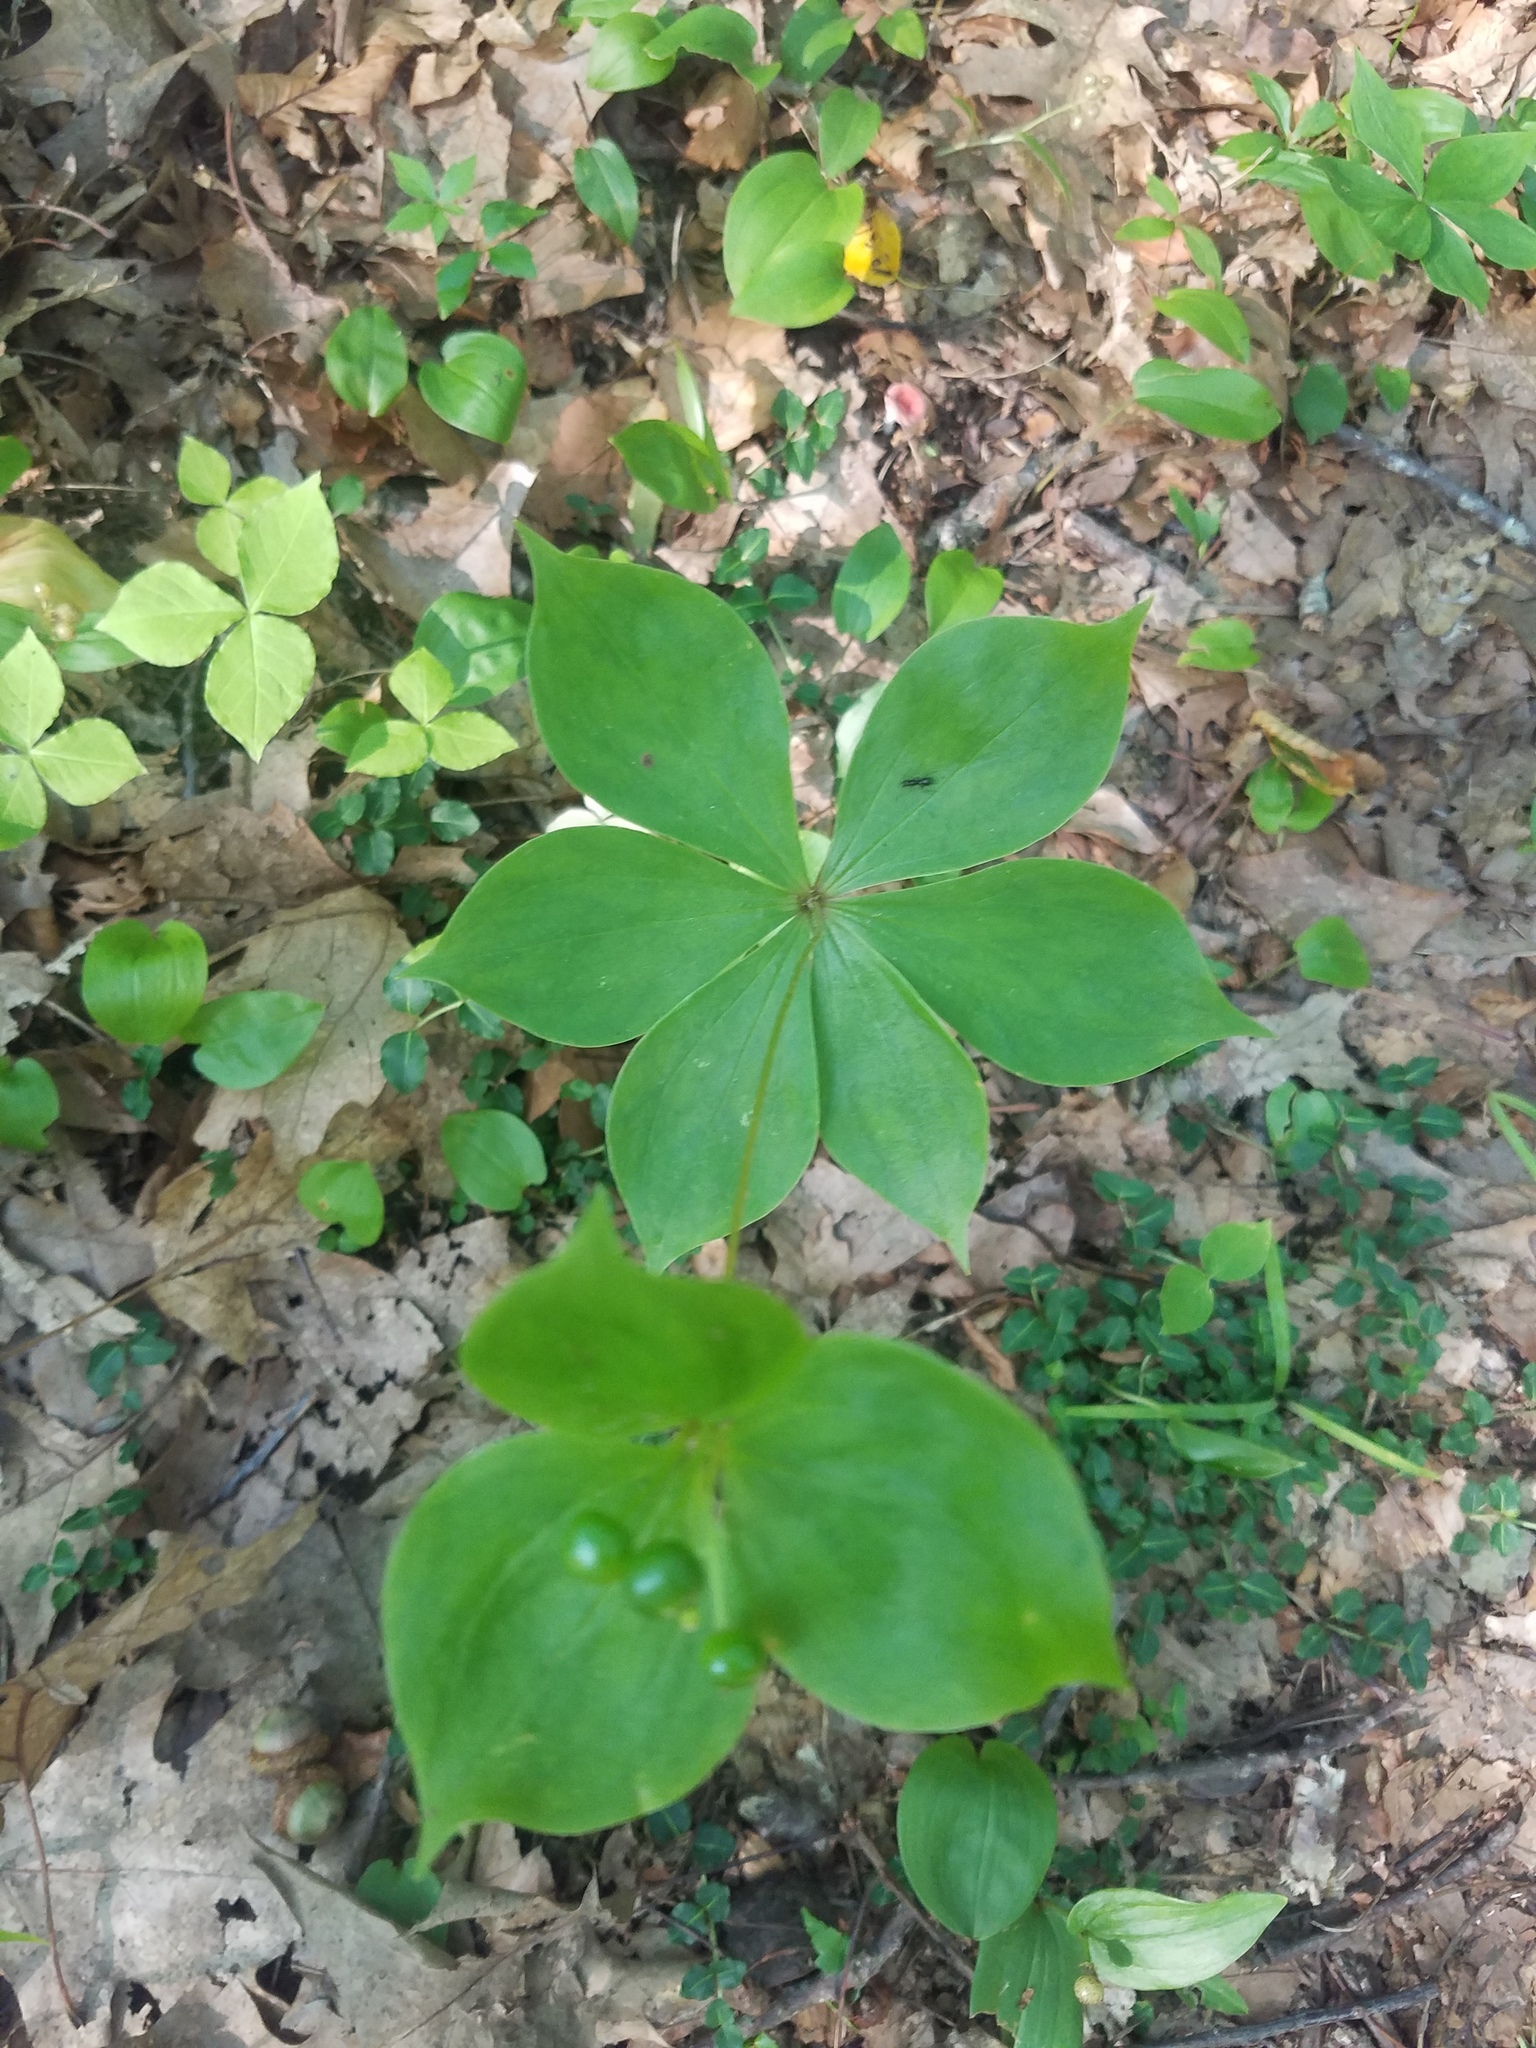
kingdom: Plantae
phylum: Tracheophyta
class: Liliopsida
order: Liliales
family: Liliaceae
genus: Medeola
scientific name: Medeola virginiana
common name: Indian cucumber-root
